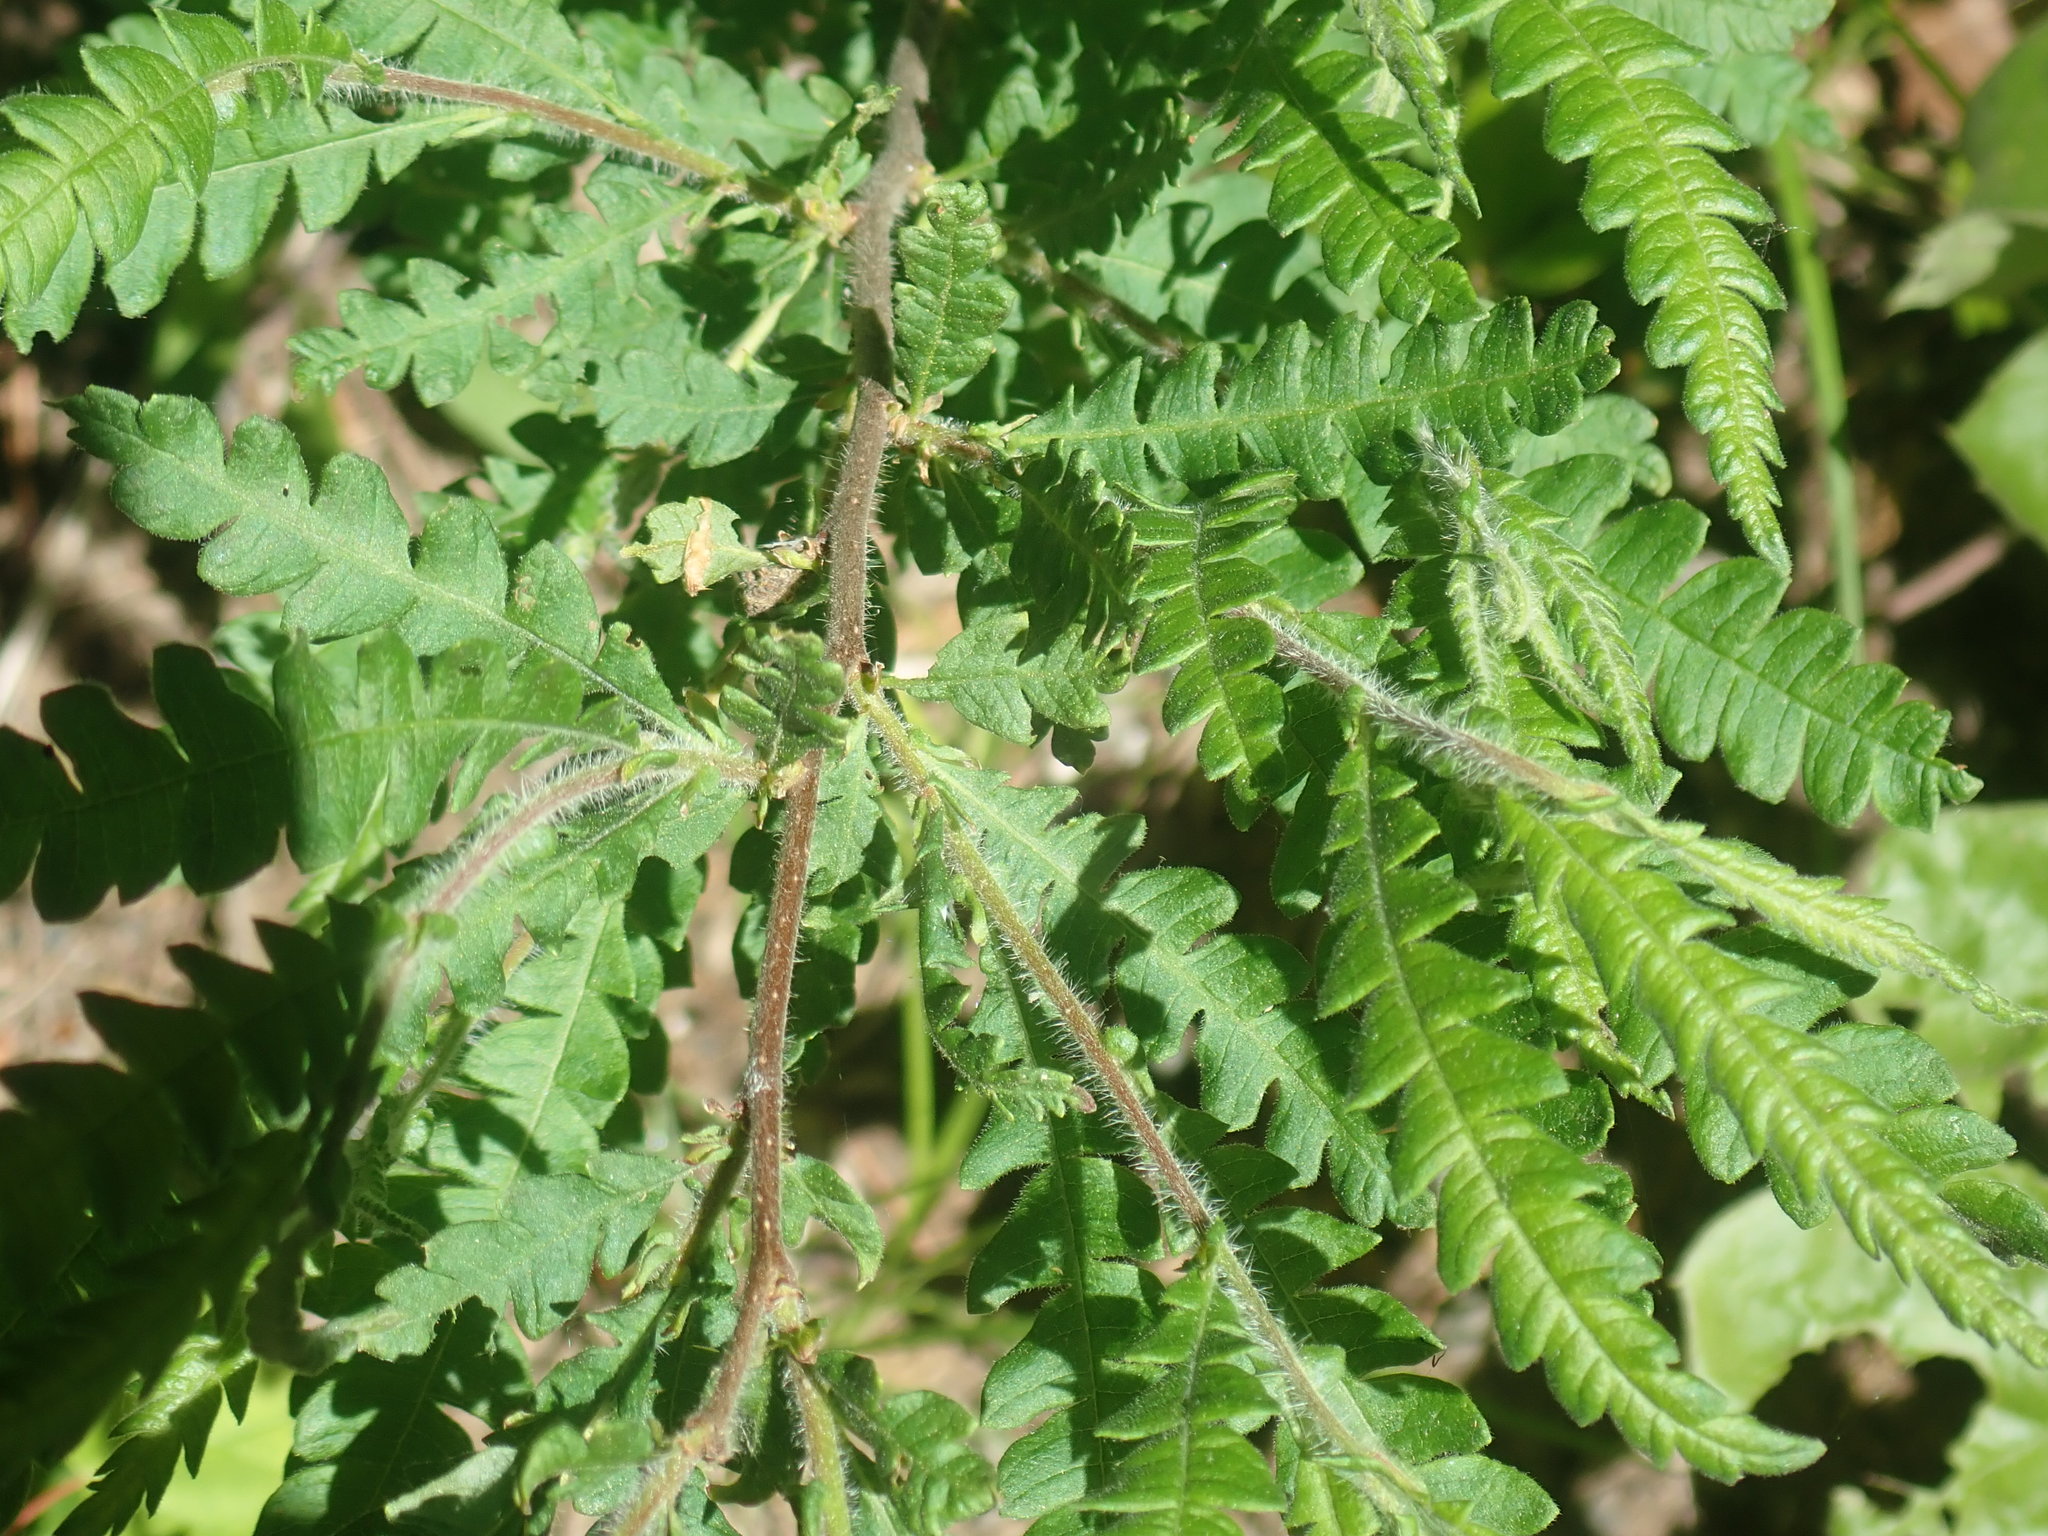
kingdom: Plantae
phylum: Tracheophyta
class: Magnoliopsida
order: Fagales
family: Myricaceae
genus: Comptonia
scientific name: Comptonia peregrina
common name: Sweet-fern
